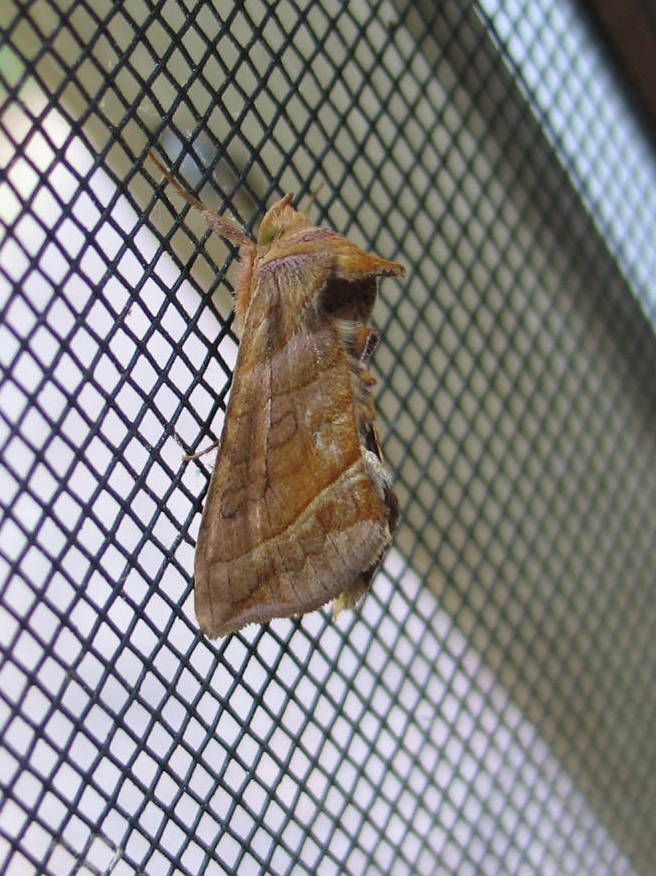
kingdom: Animalia
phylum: Arthropoda
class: Insecta
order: Lepidoptera
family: Noctuidae
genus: Diachrysia
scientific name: Diachrysia aereoides
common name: Dark-spotted looper moth
